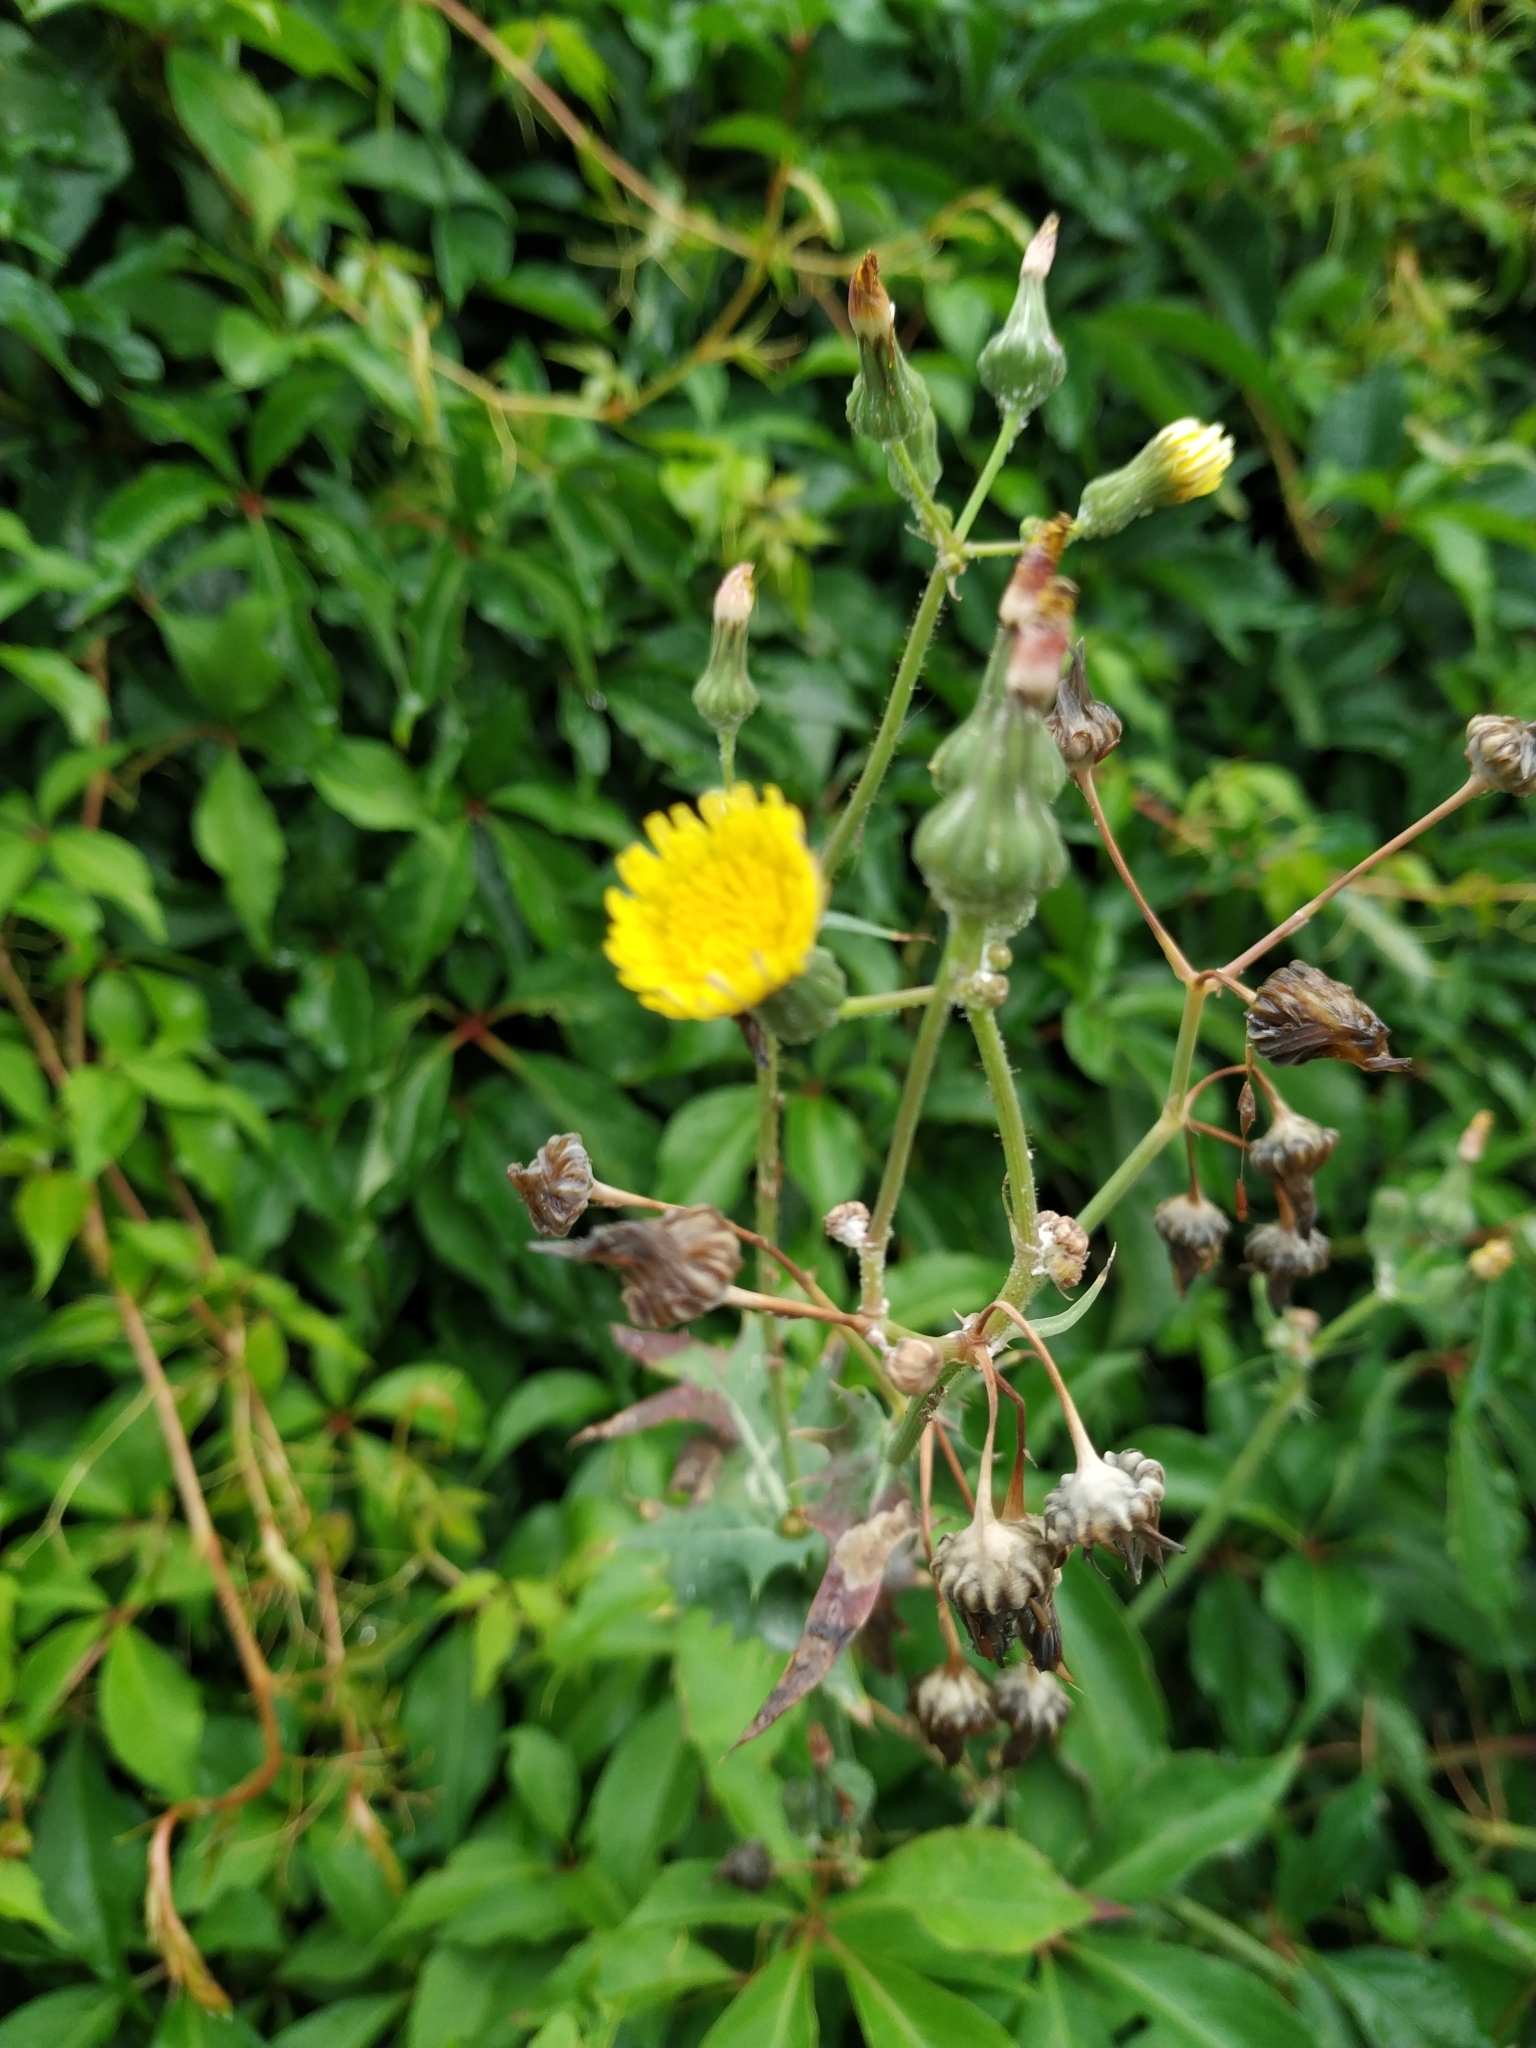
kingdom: Plantae
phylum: Tracheophyta
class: Magnoliopsida
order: Asterales
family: Asteraceae
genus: Sonchus
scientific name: Sonchus oleraceus
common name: Common sowthistle
